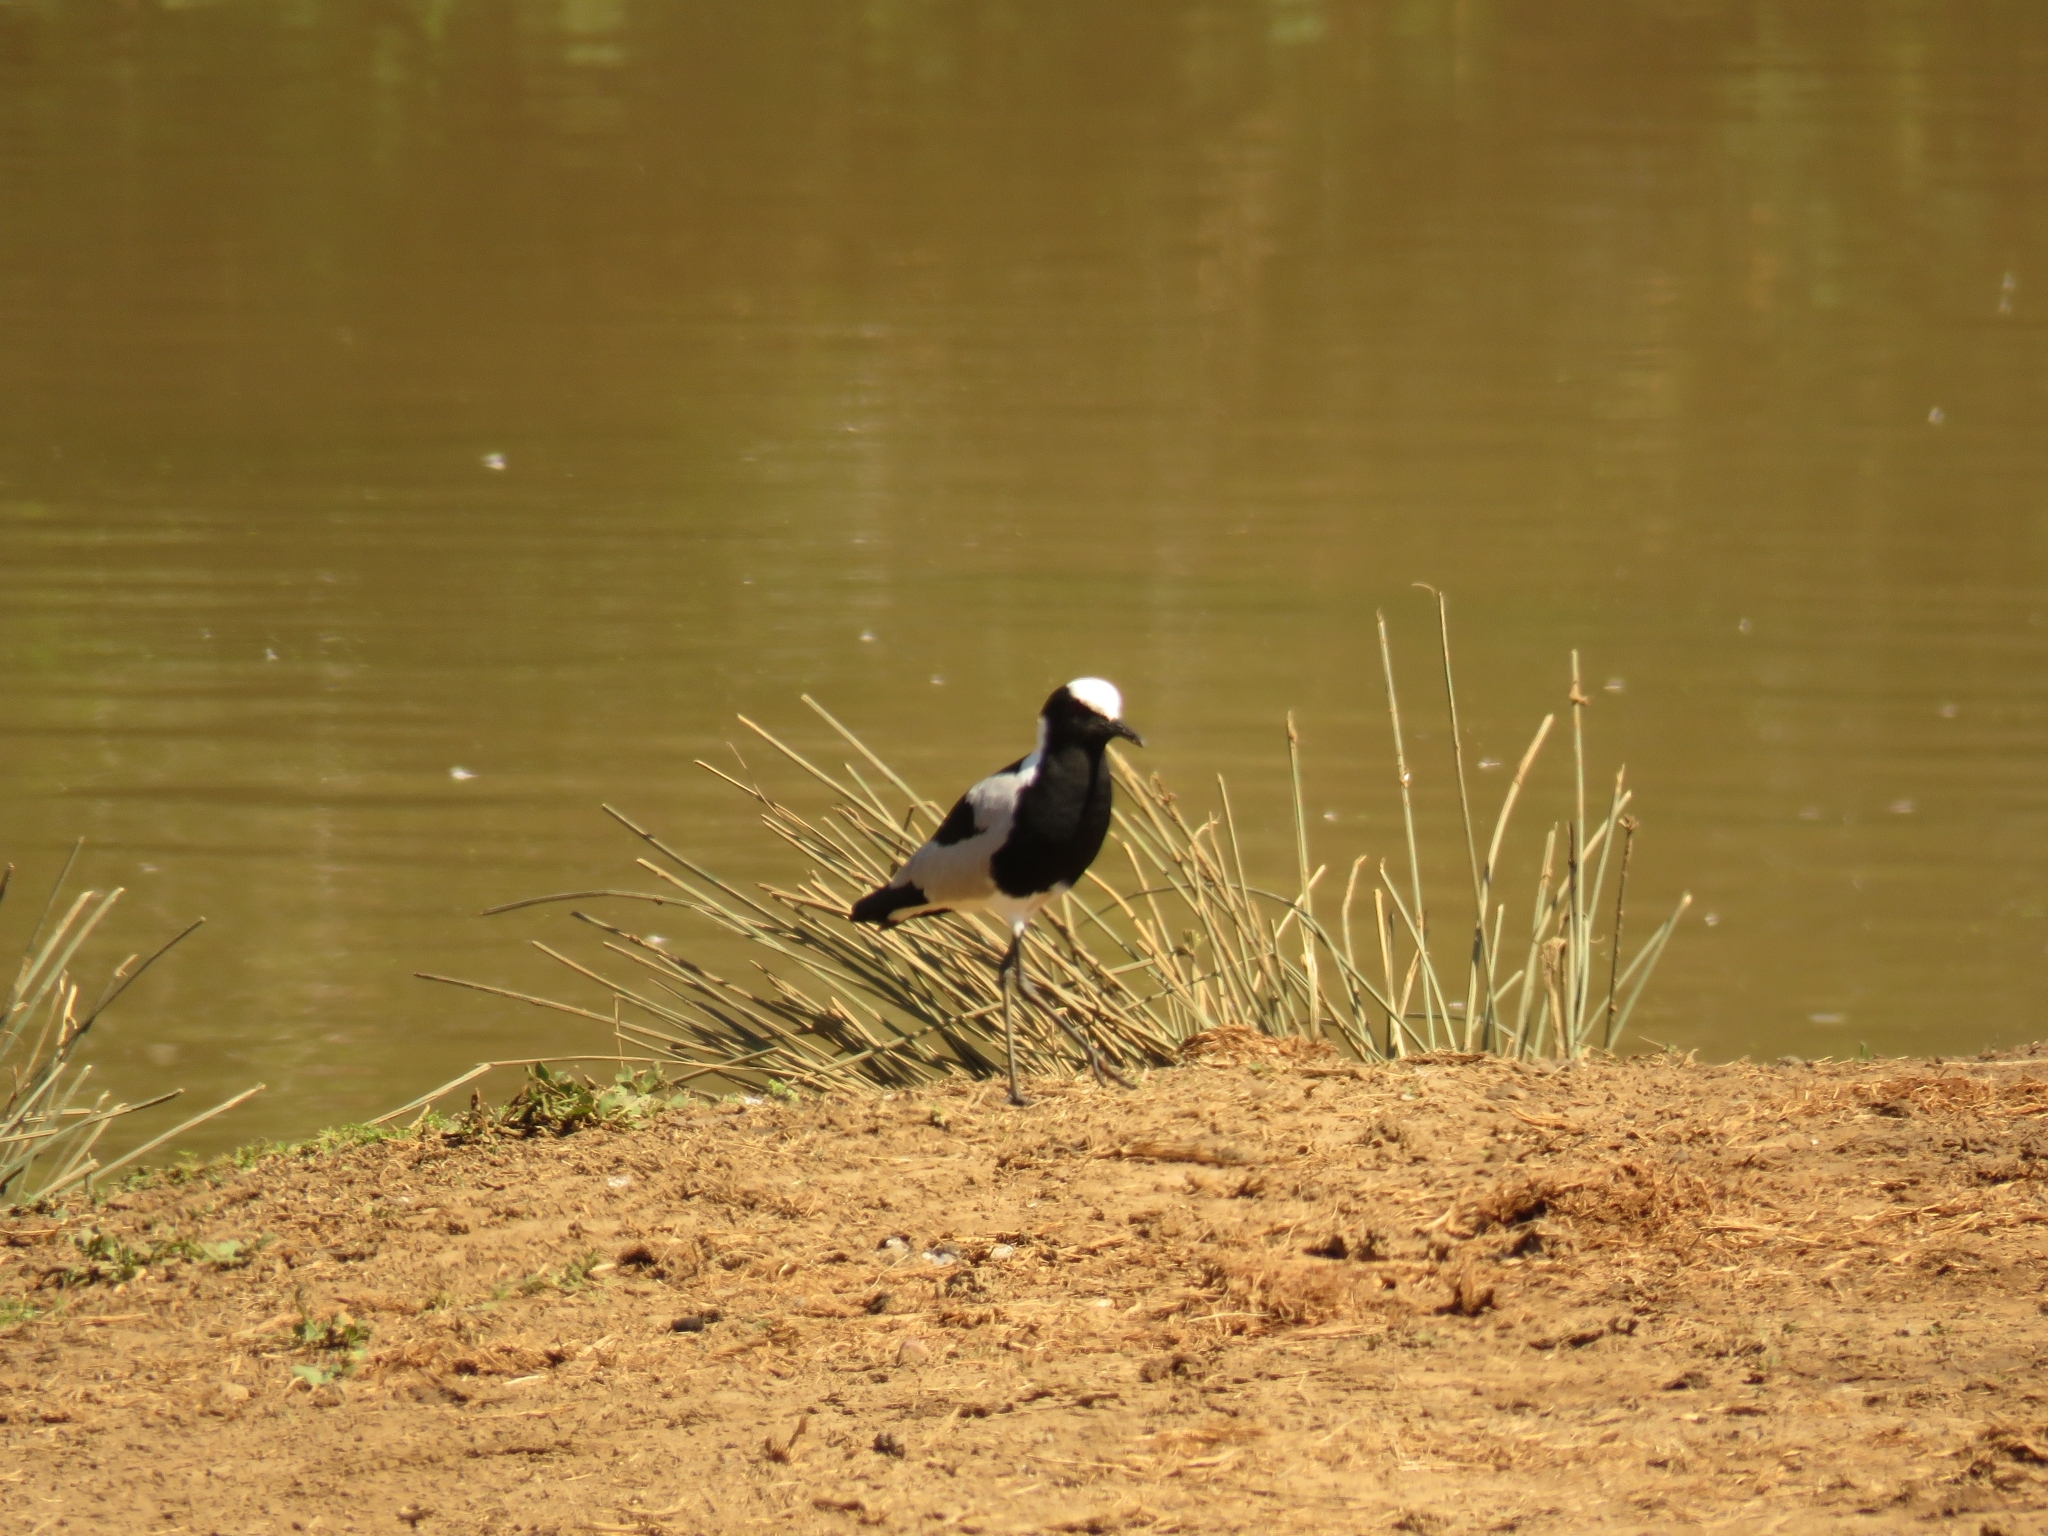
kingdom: Animalia
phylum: Chordata
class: Aves
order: Charadriiformes
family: Charadriidae
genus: Vanellus
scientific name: Vanellus armatus
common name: Blacksmith lapwing
